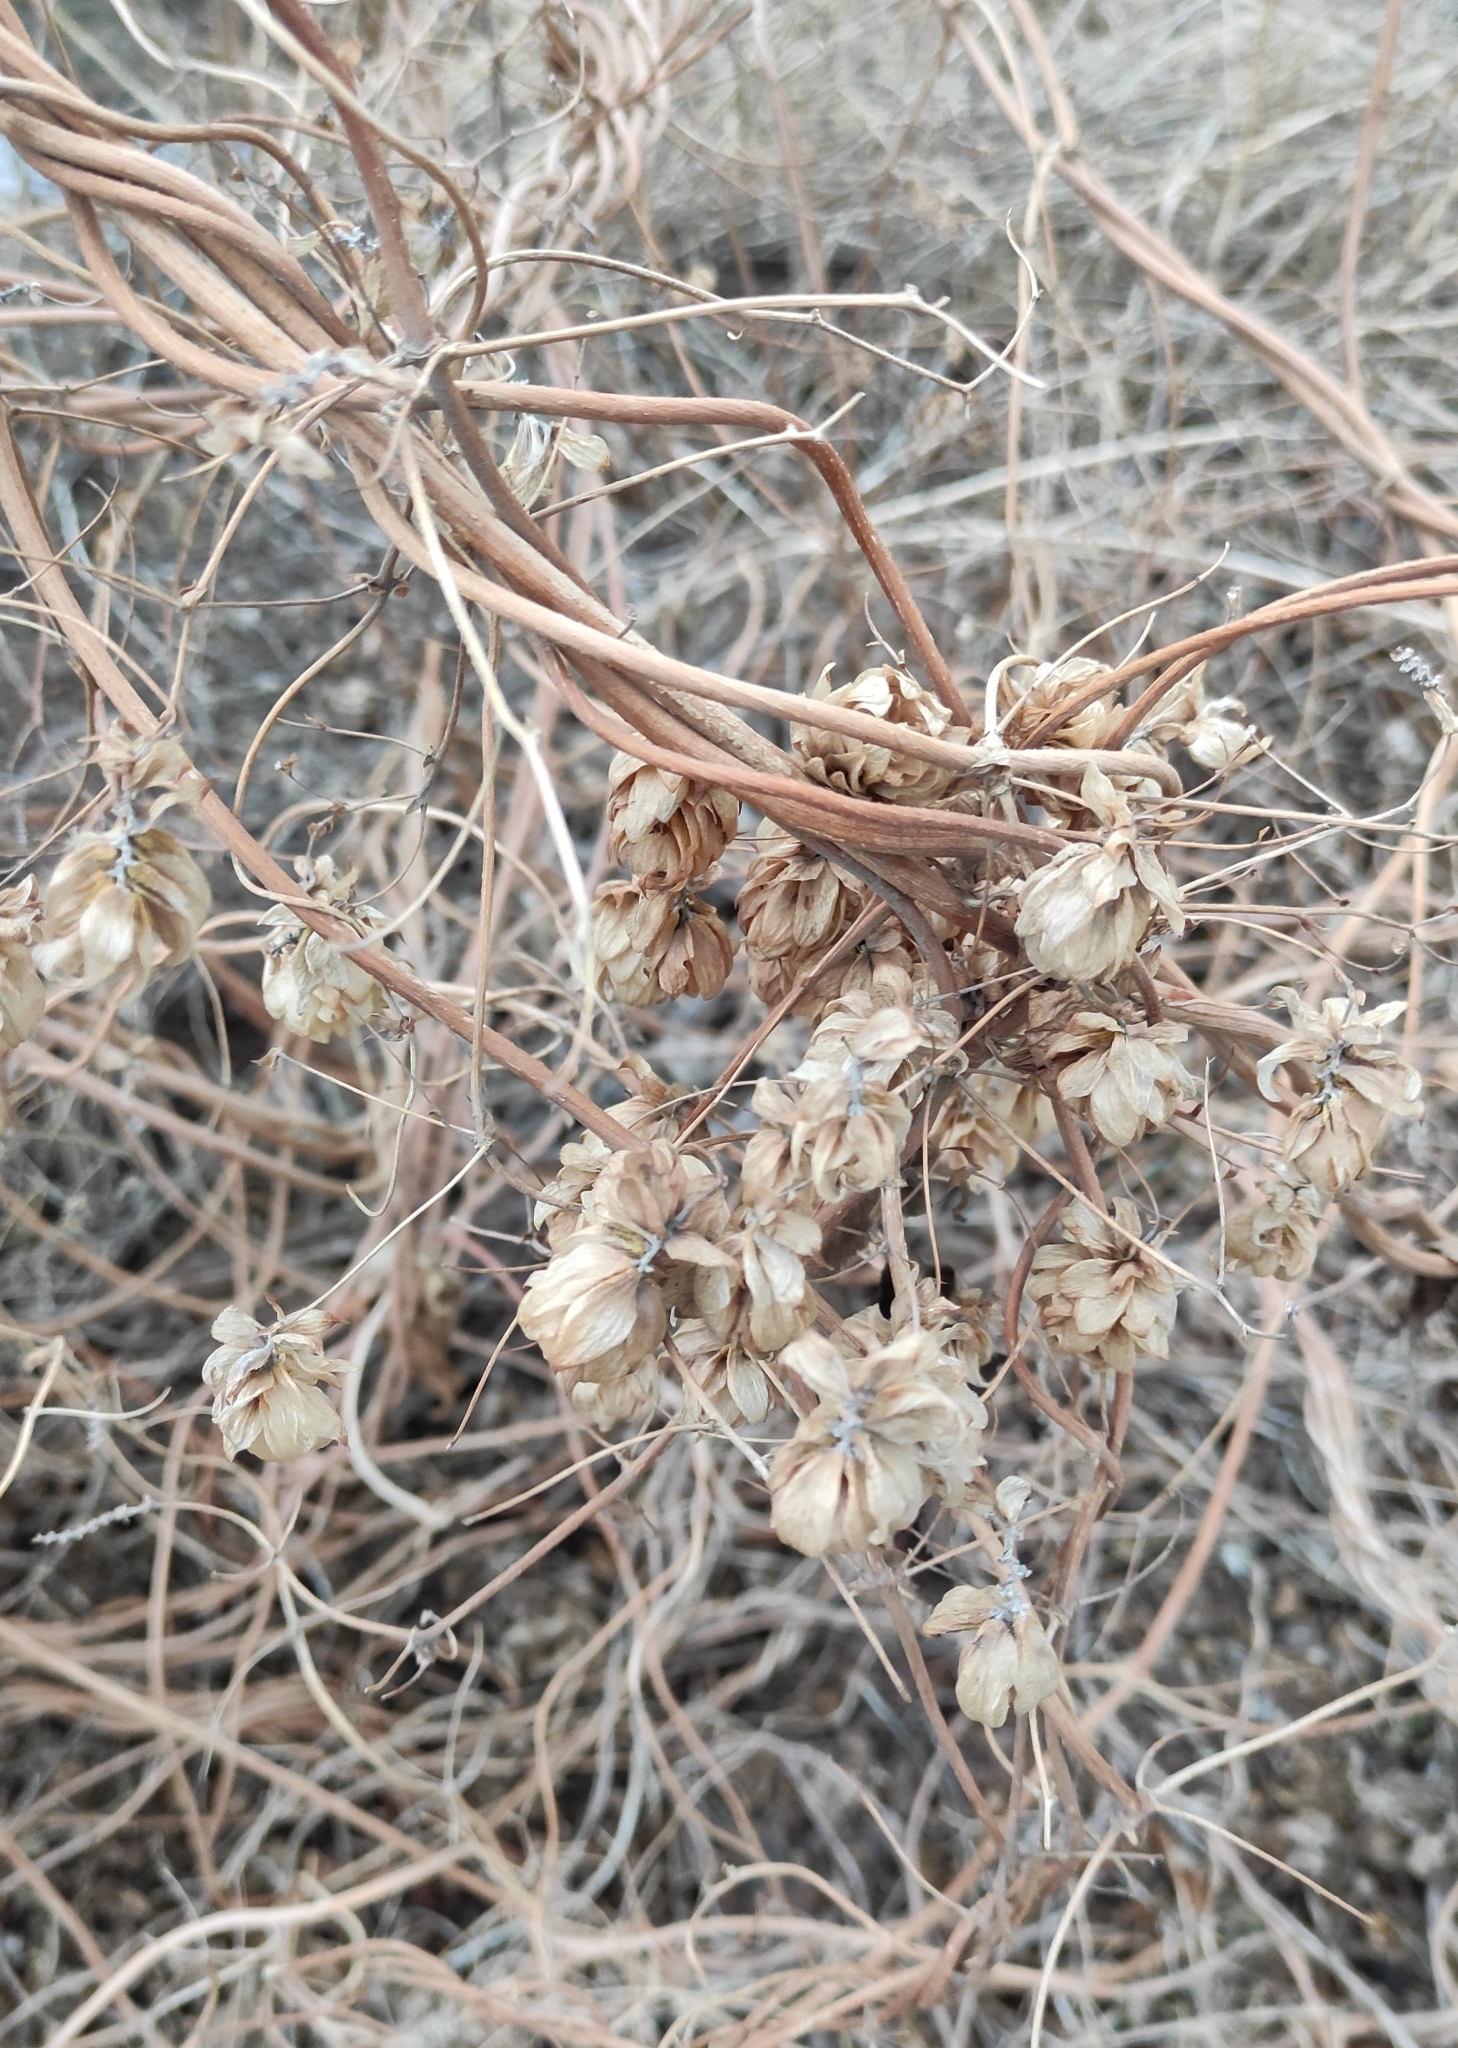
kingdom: Plantae
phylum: Tracheophyta
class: Magnoliopsida
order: Rosales
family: Cannabaceae
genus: Humulus
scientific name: Humulus lupulus
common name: Hop
